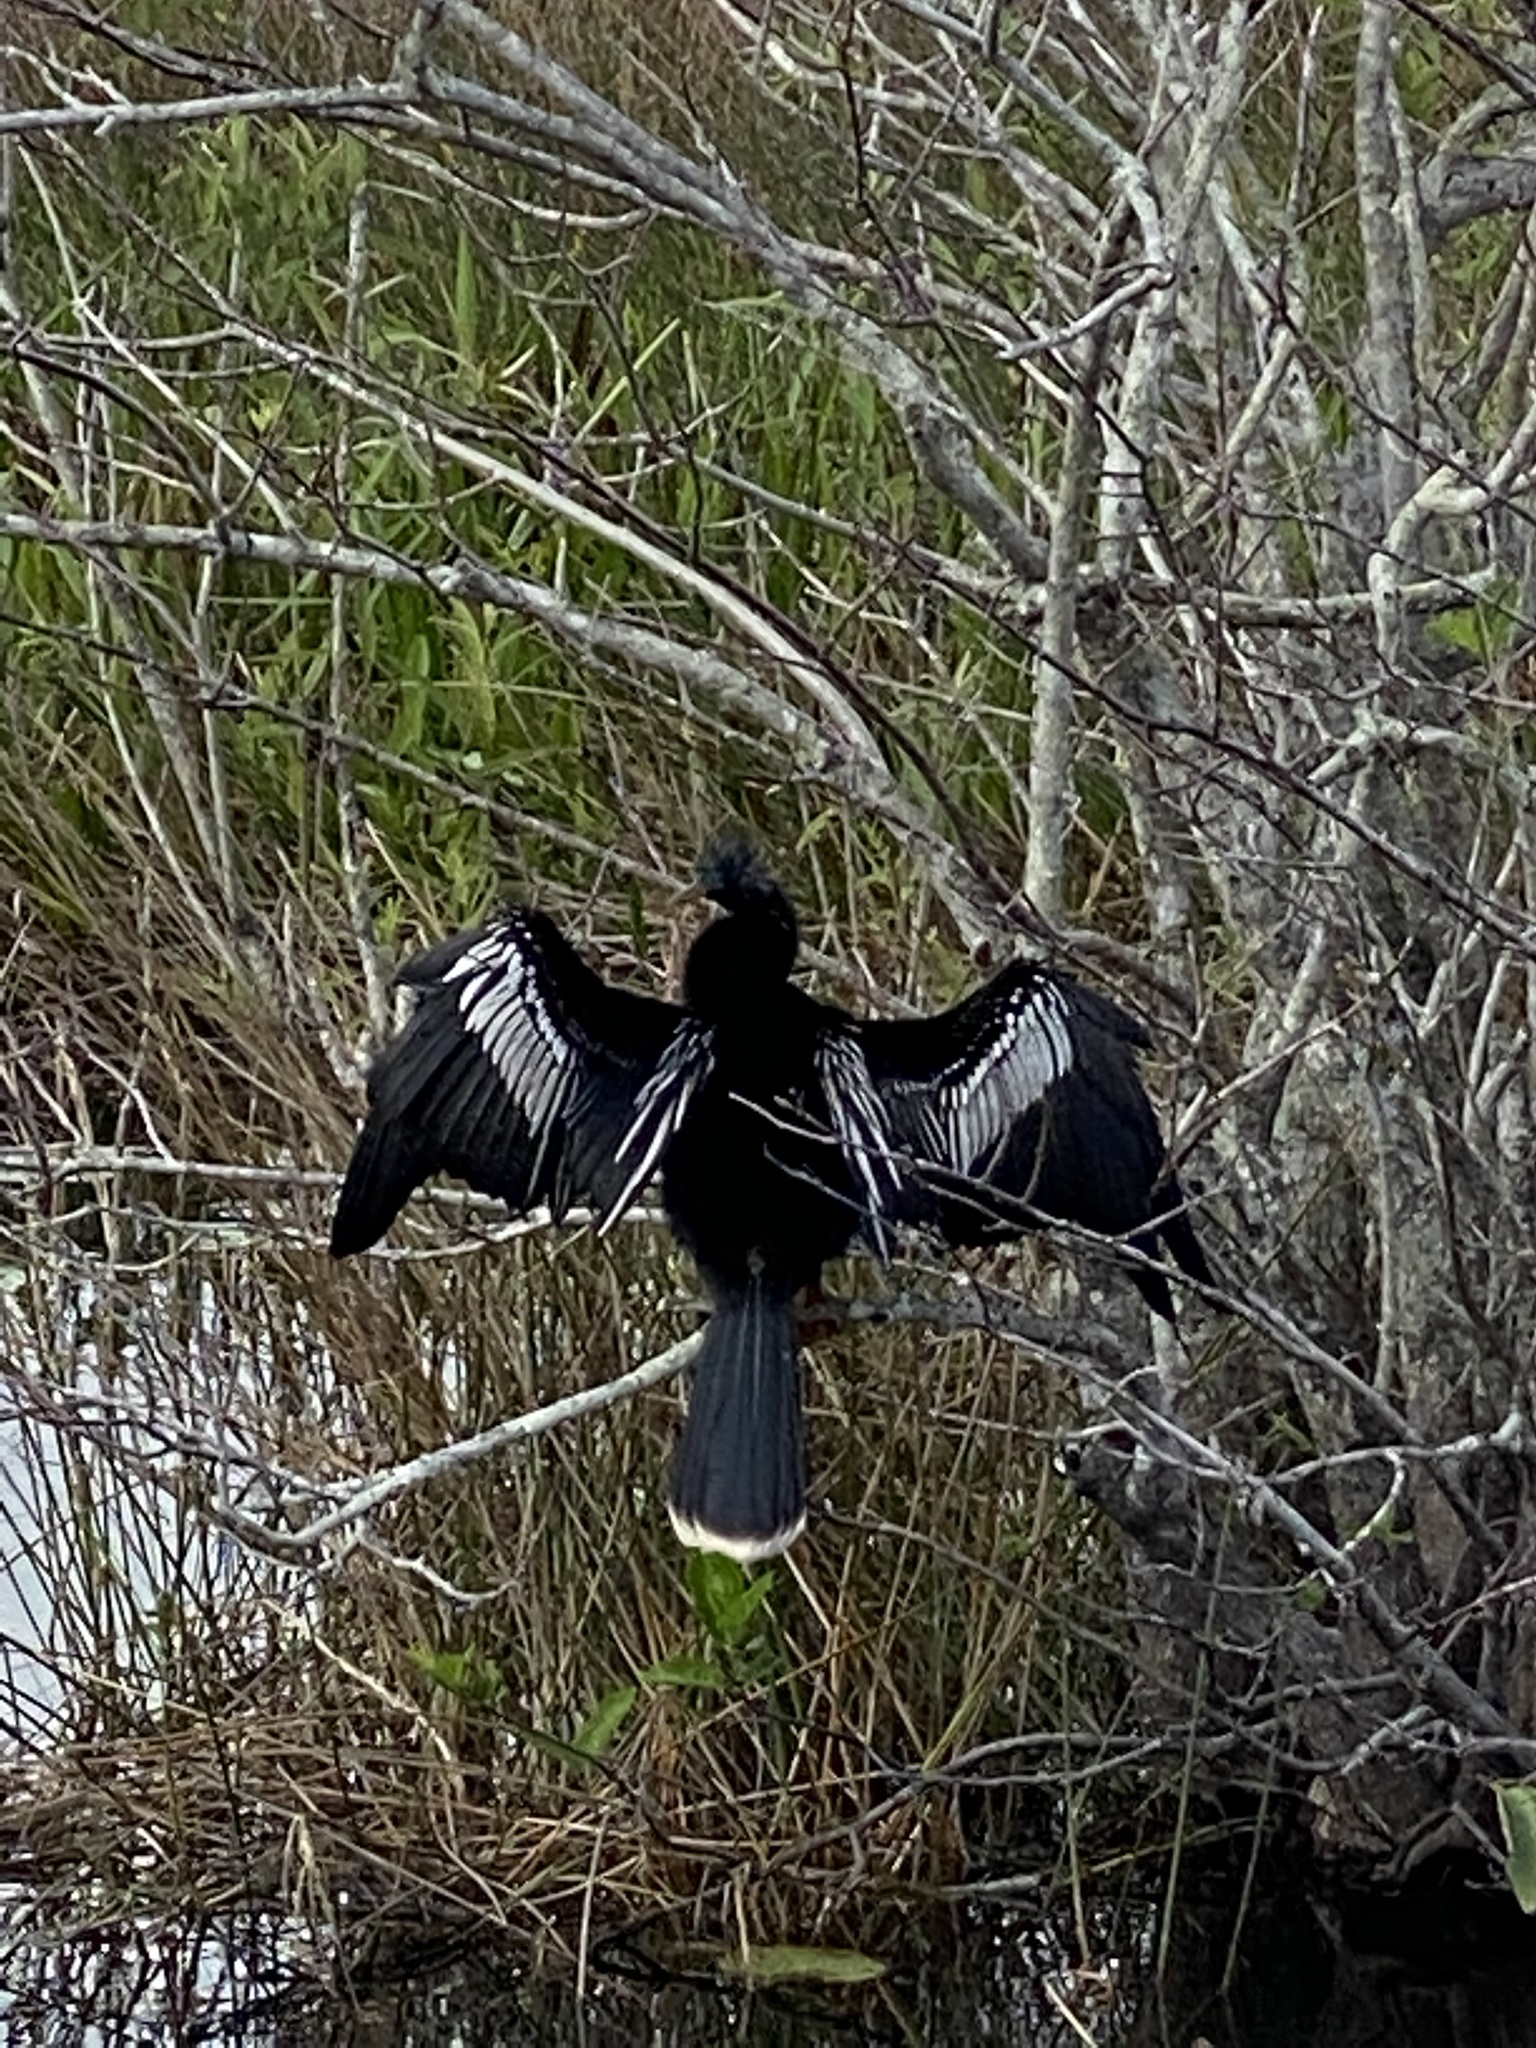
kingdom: Animalia
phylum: Chordata
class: Aves
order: Suliformes
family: Anhingidae
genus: Anhinga
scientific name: Anhinga anhinga
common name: Anhinga
